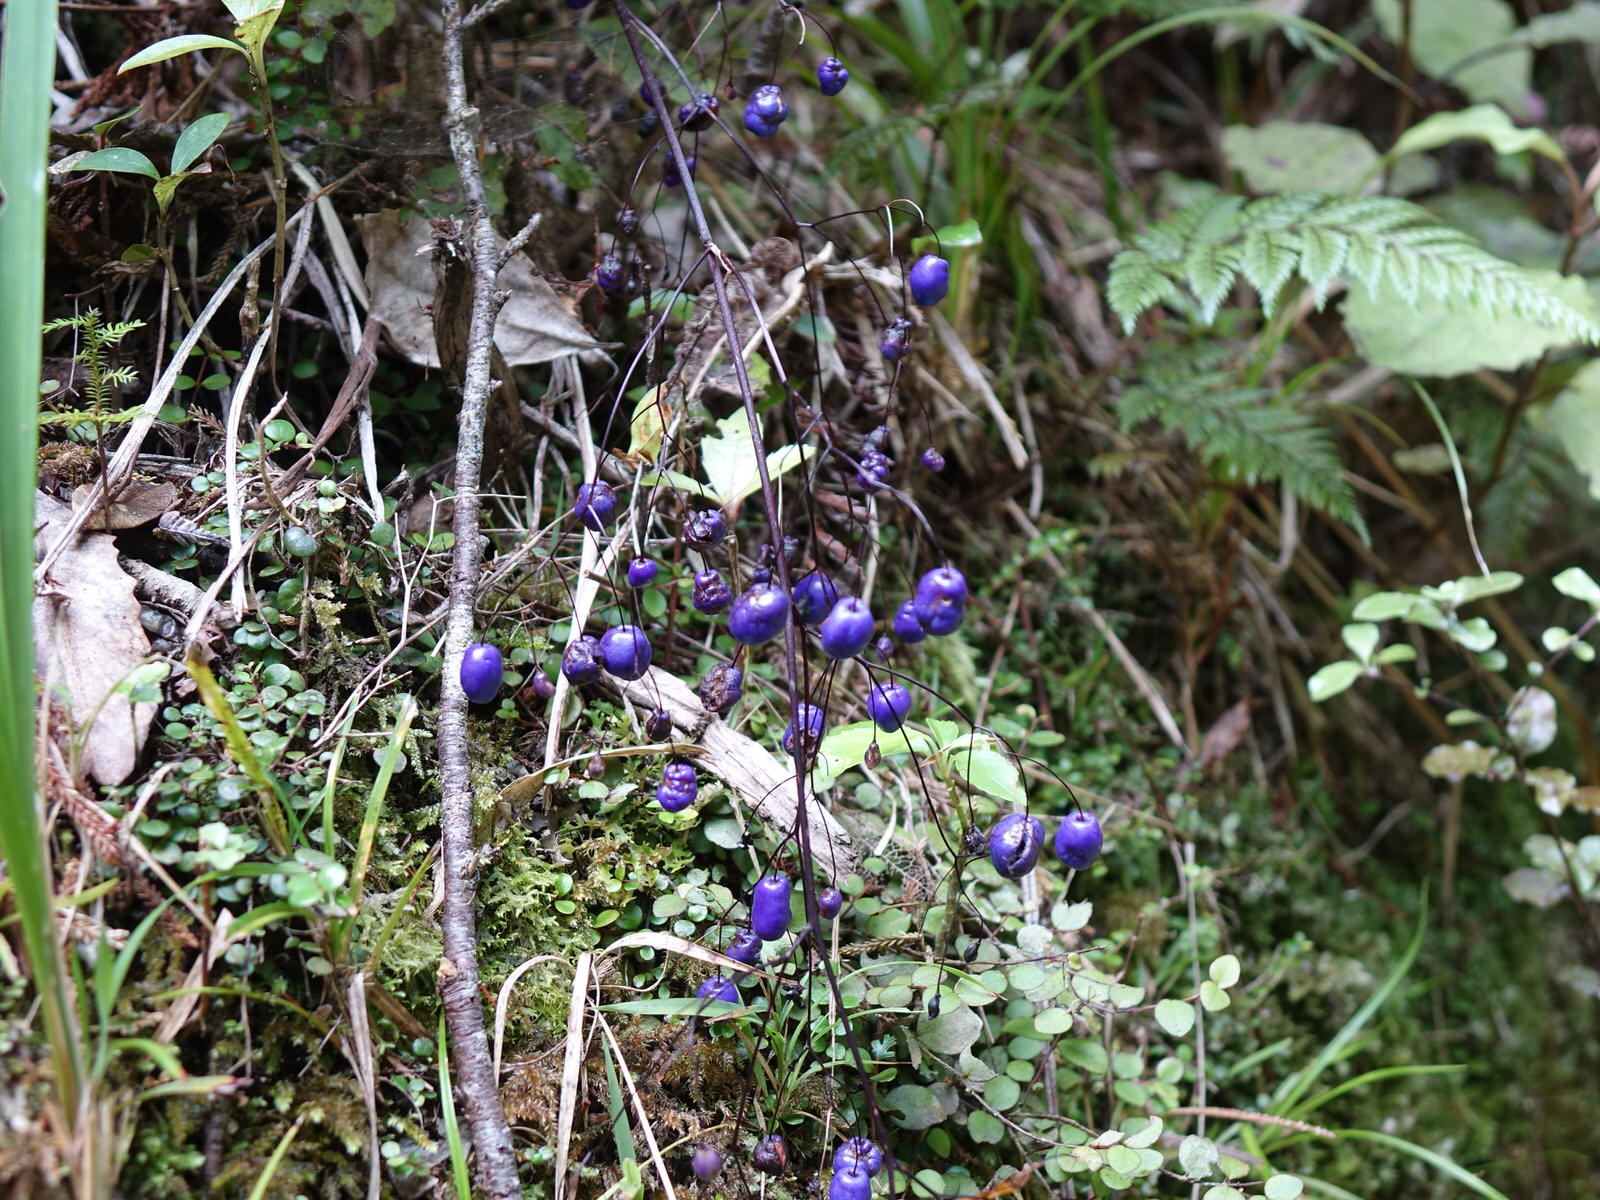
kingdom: Plantae
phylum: Tracheophyta
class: Liliopsida
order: Asparagales
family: Asphodelaceae
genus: Dianella
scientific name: Dianella nigra
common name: New zealand-blueberry
